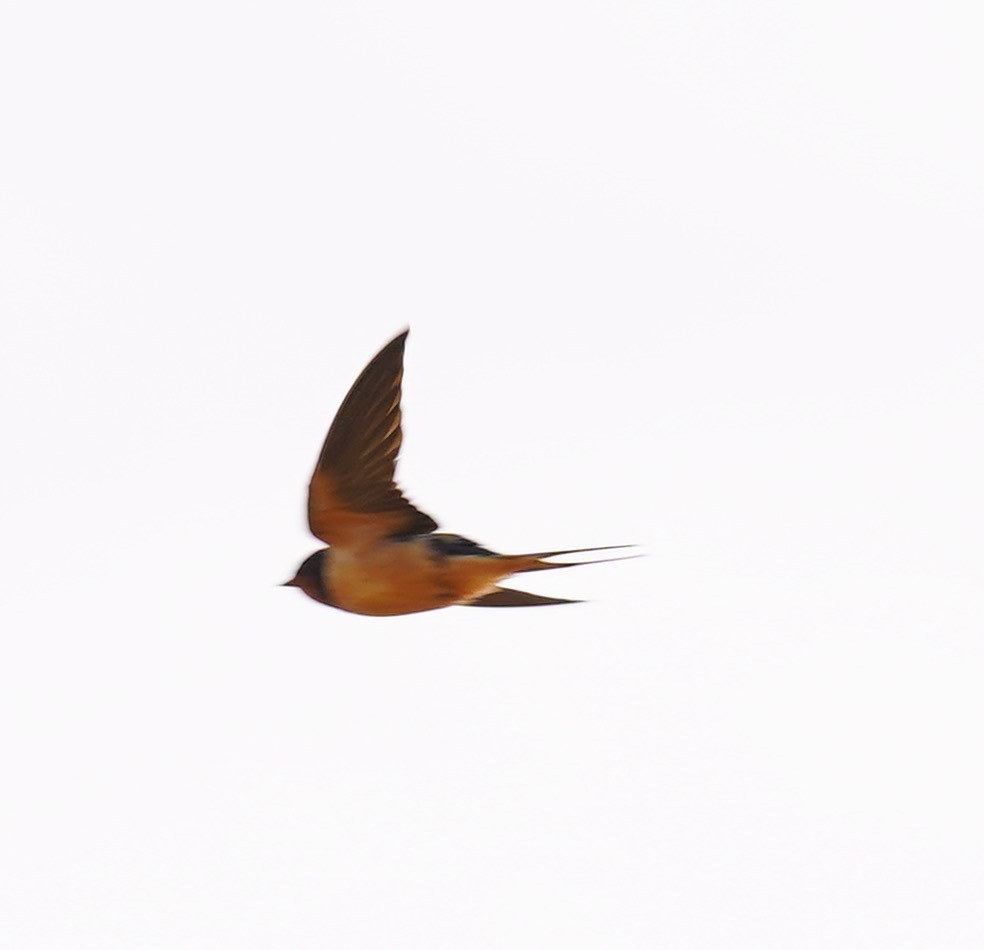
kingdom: Animalia
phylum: Chordata
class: Aves
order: Passeriformes
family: Hirundinidae
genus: Hirundo
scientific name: Hirundo rustica
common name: Barn swallow
